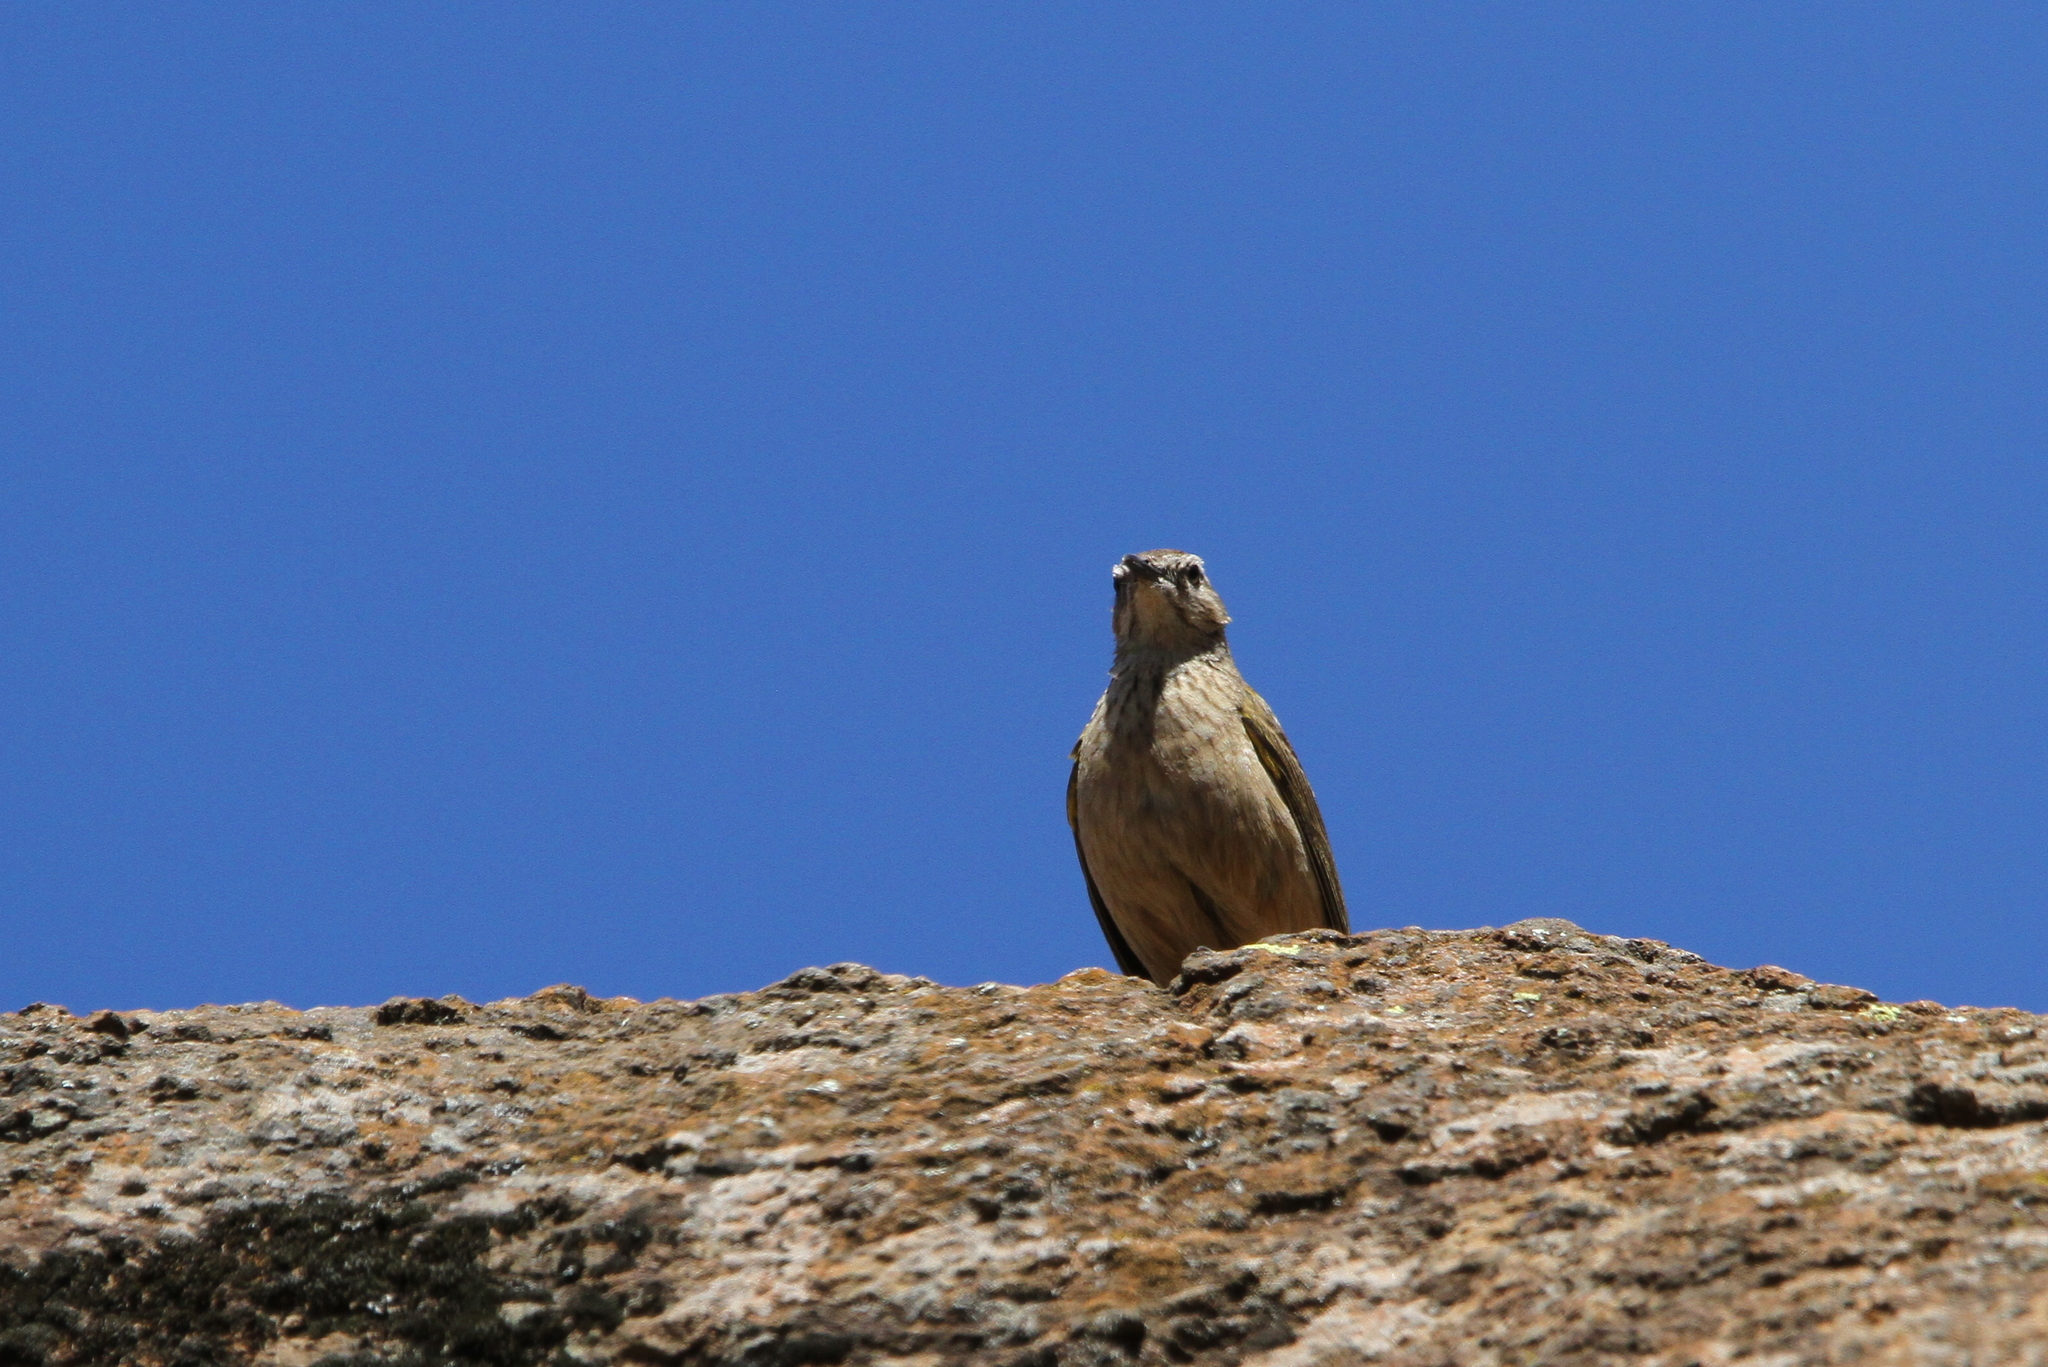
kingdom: Animalia
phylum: Chordata
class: Aves
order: Passeriformes
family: Motacillidae
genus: Anthus
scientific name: Anthus crenatus
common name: African rock pipit
